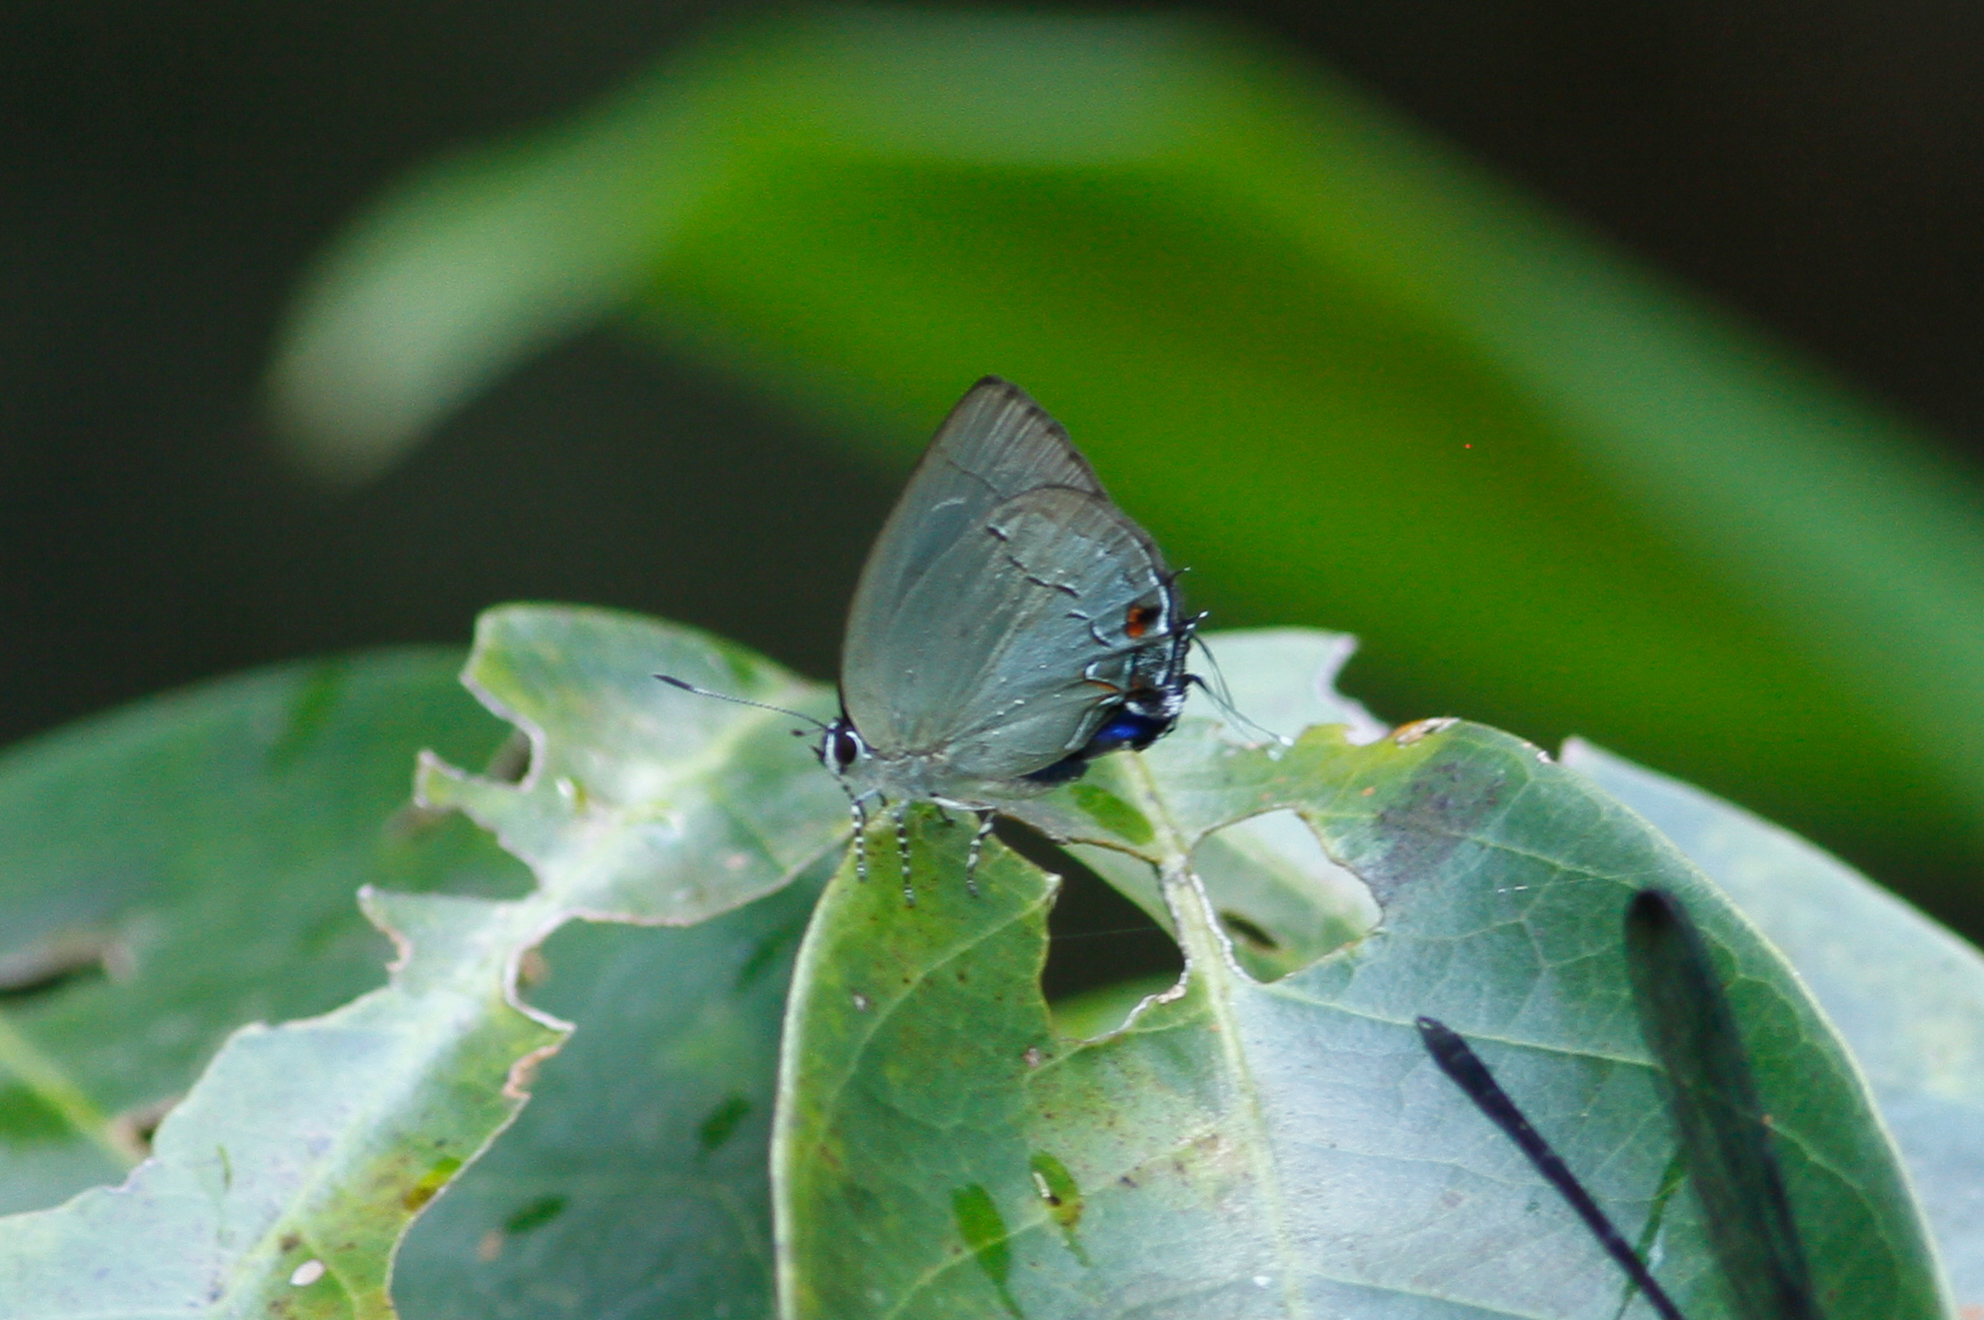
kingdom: Animalia
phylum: Arthropoda
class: Insecta
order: Lepidoptera
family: Lycaenidae
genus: Thecla
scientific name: Thecla lydus
